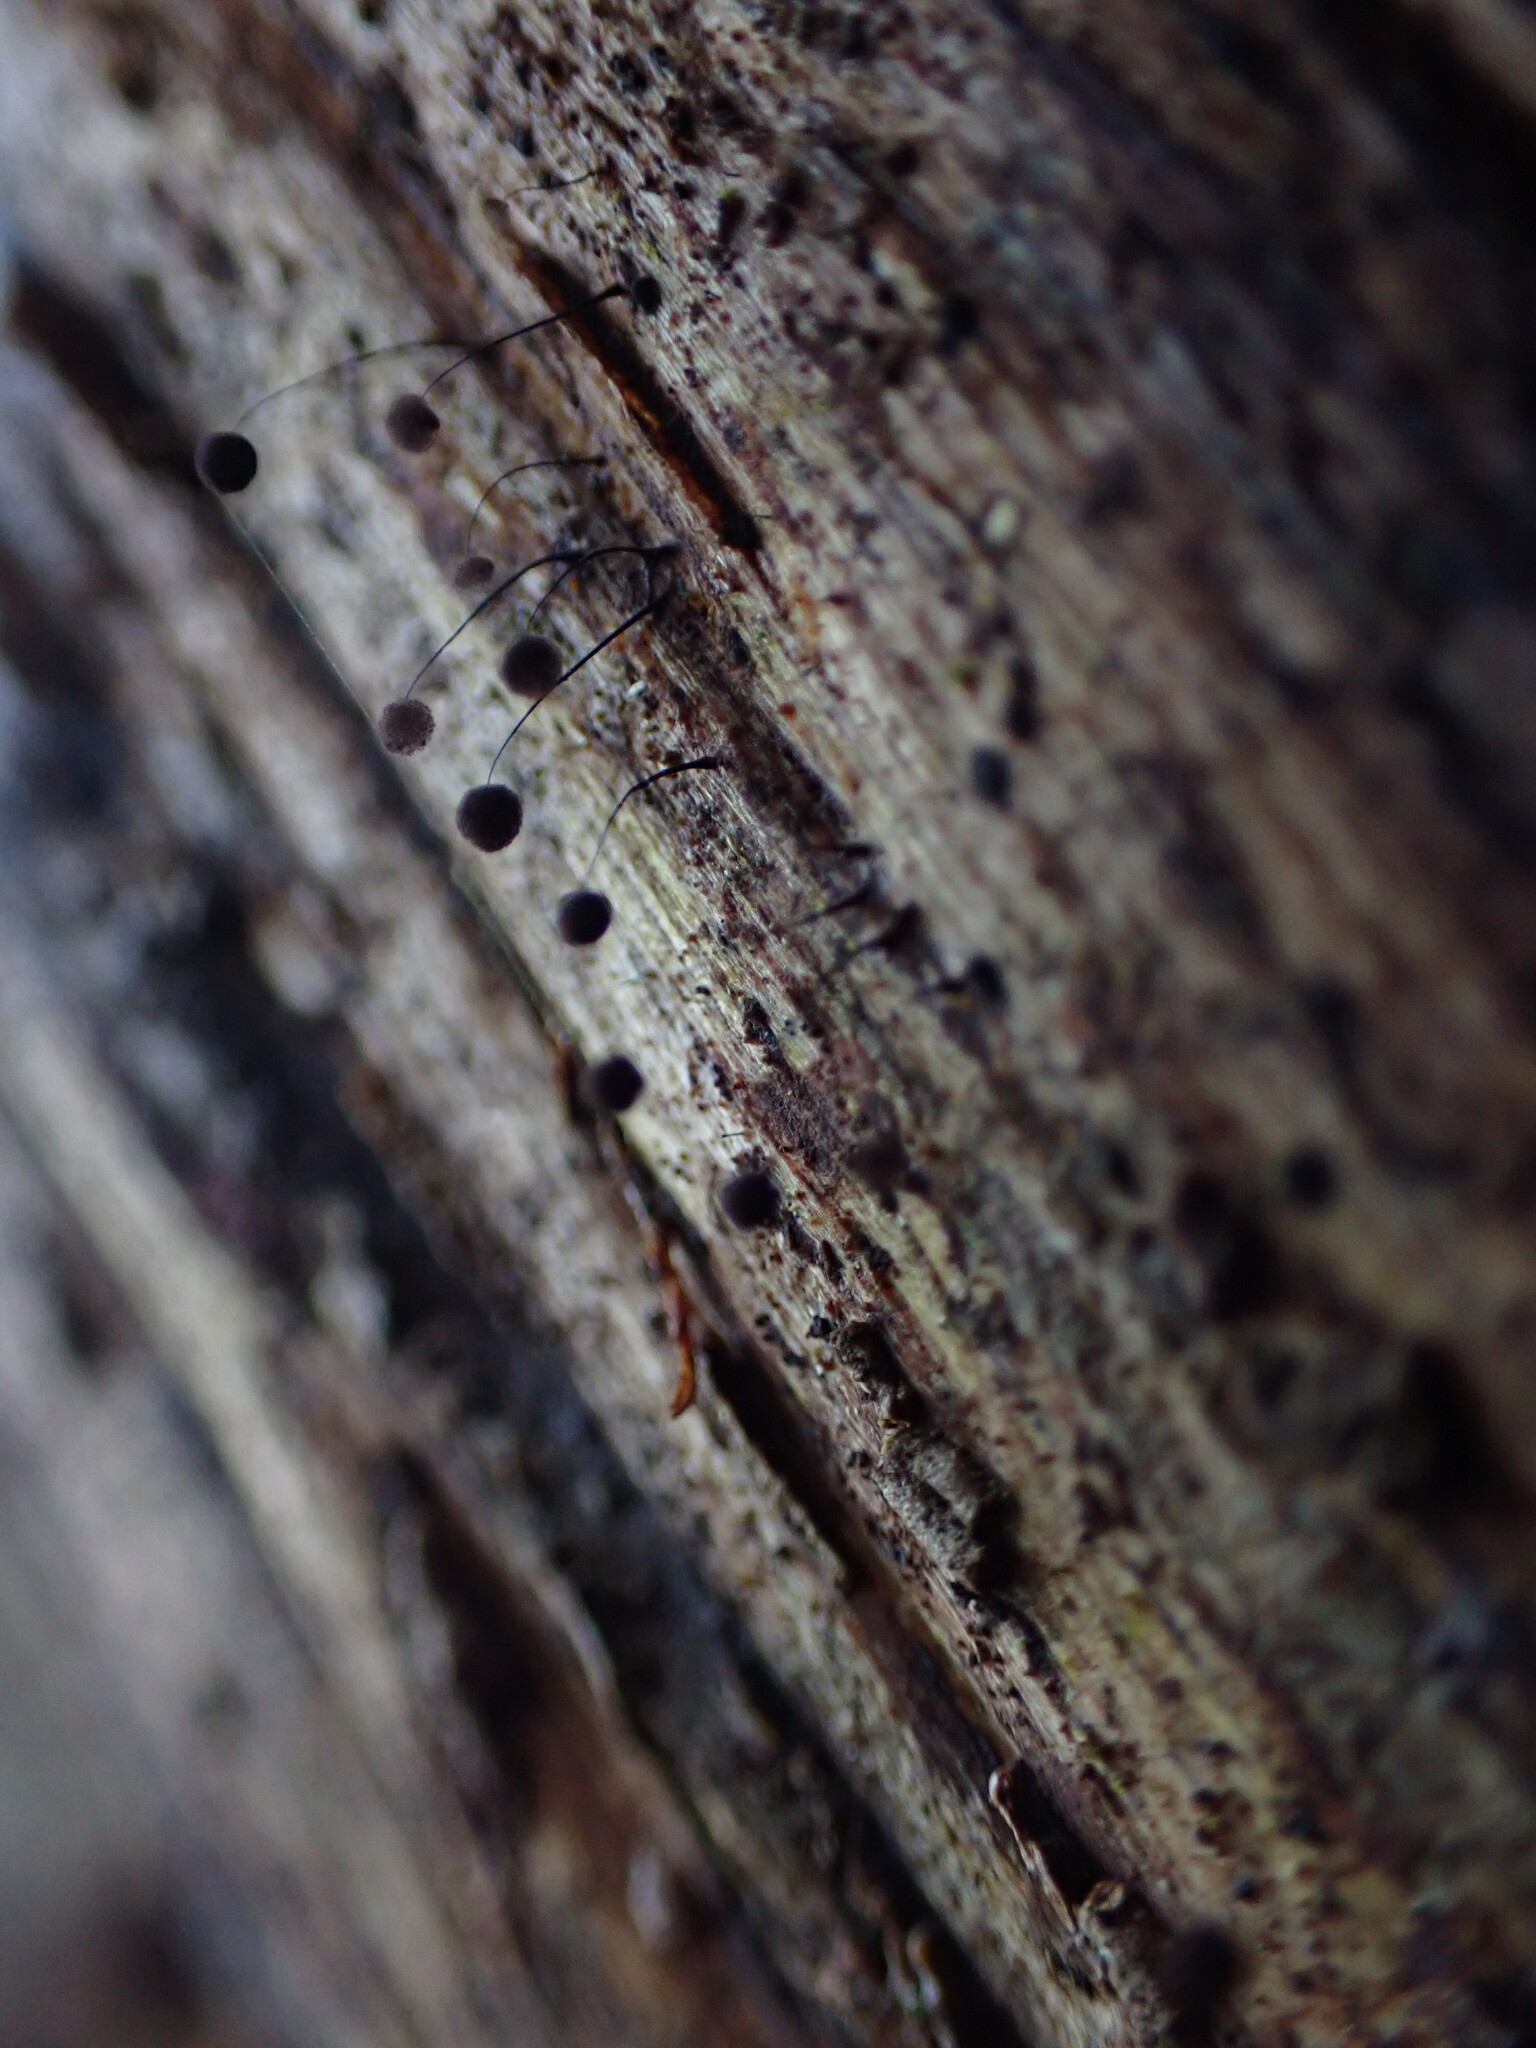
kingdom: Protozoa
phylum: Mycetozoa
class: Myxomycetes
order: Stemonitidales
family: Stemonitidaceae
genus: Comatricha
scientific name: Comatricha nigra
